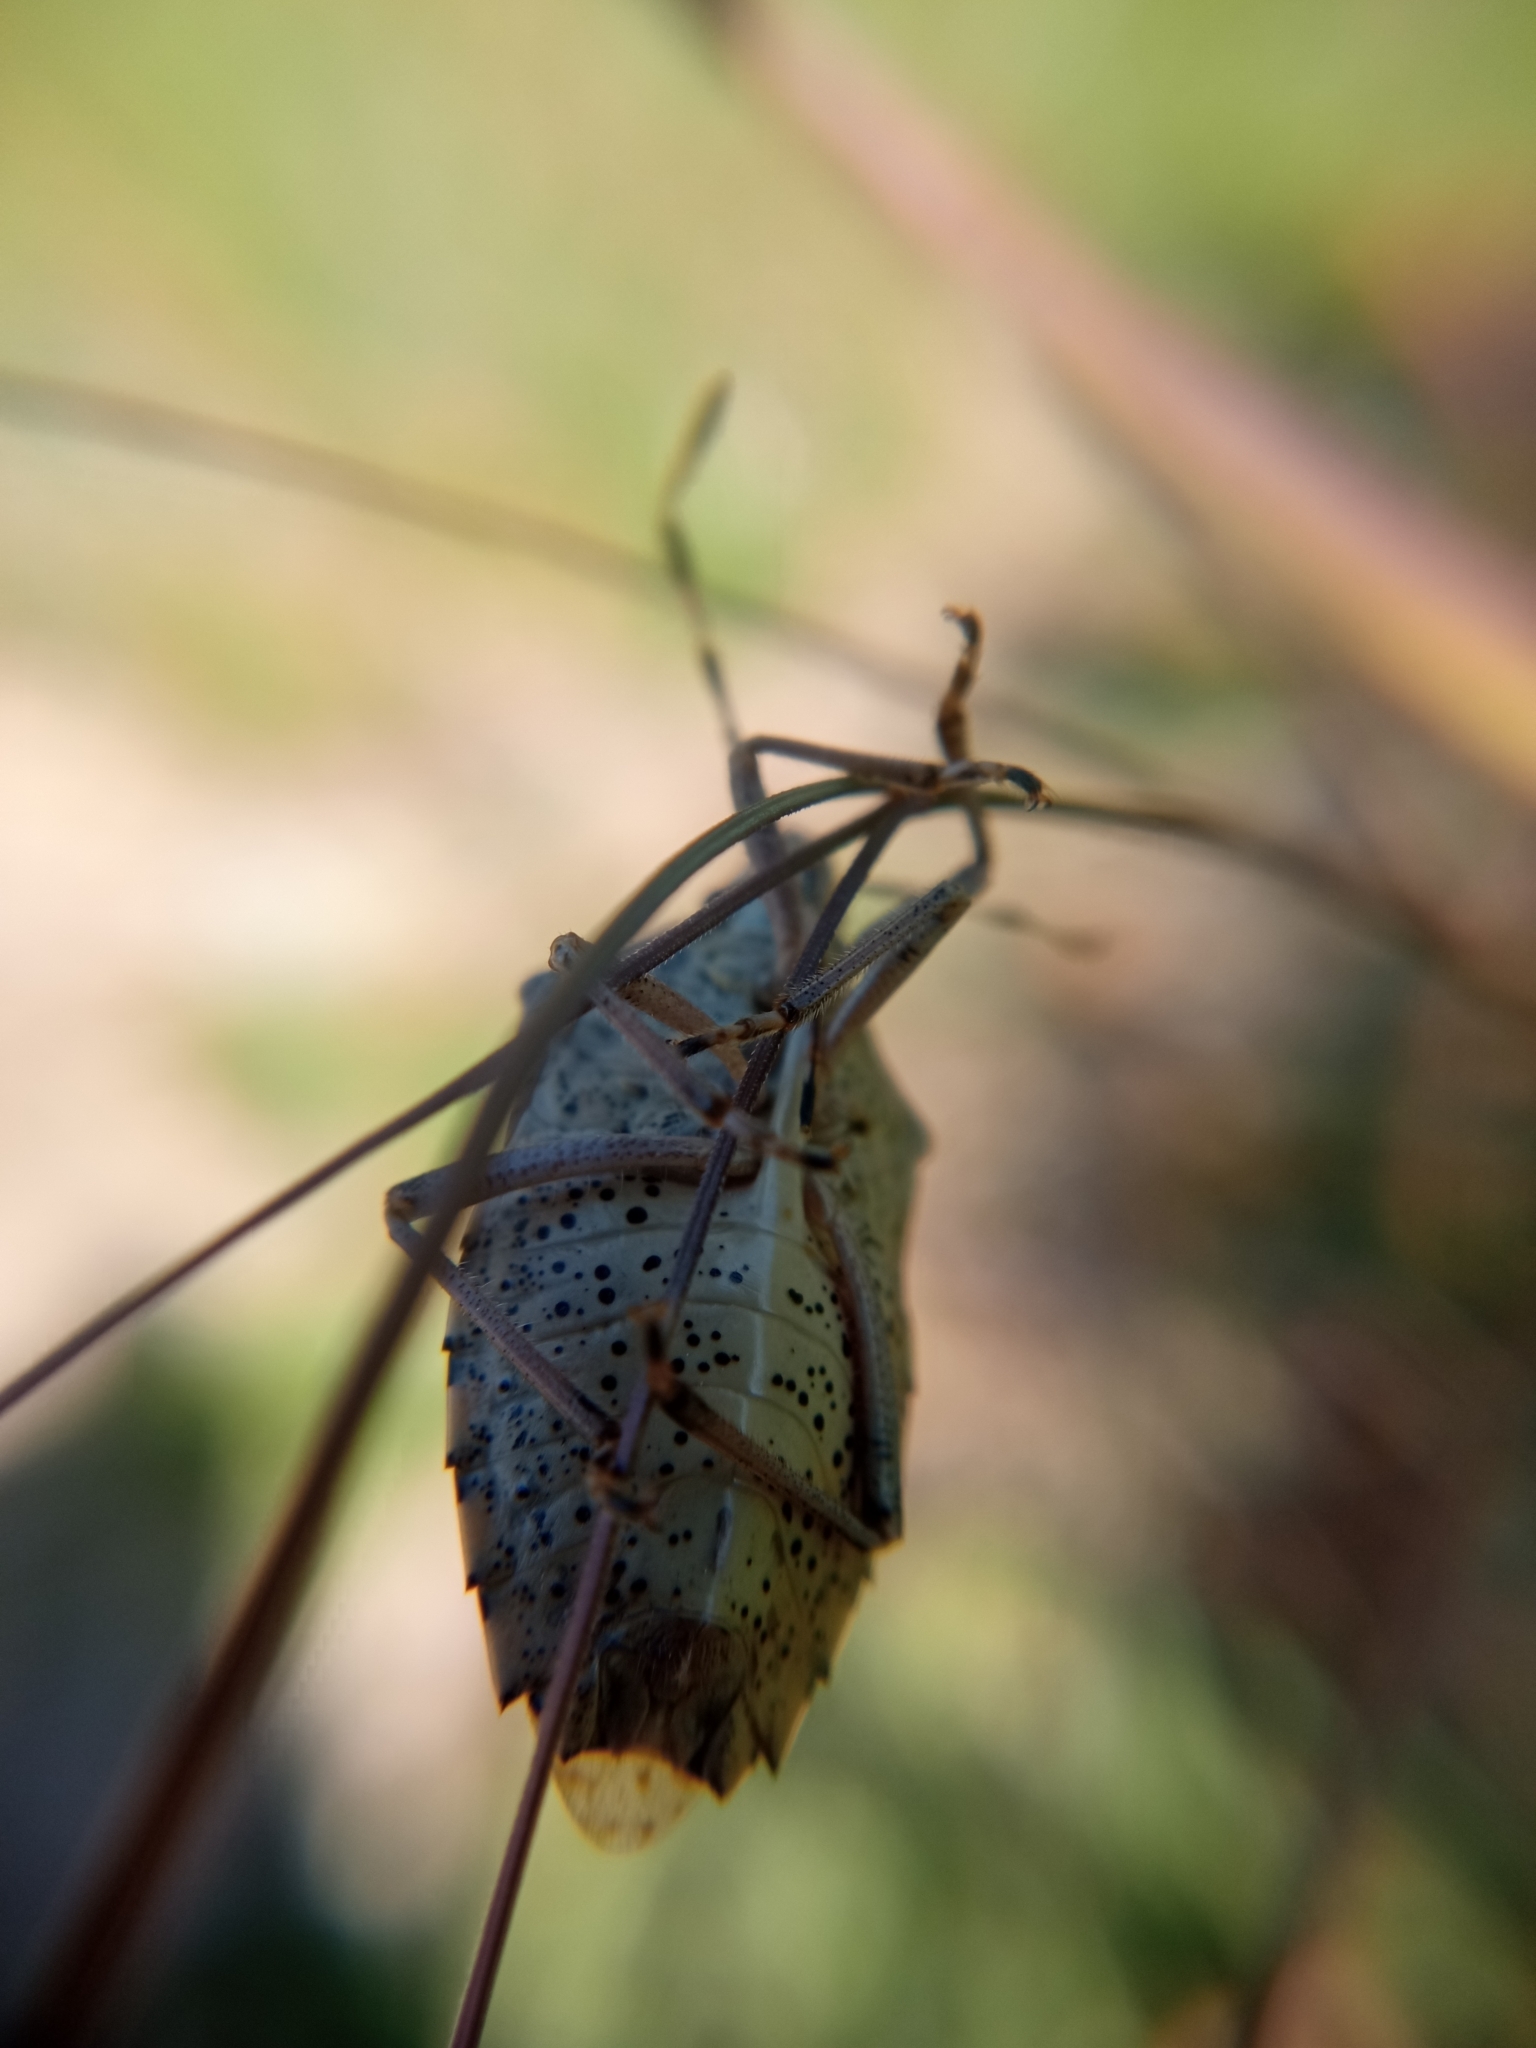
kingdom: Animalia
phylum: Arthropoda
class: Insecta
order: Hemiptera
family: Pentatomidae
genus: Rhaphigaster
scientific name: Rhaphigaster nebulosa
